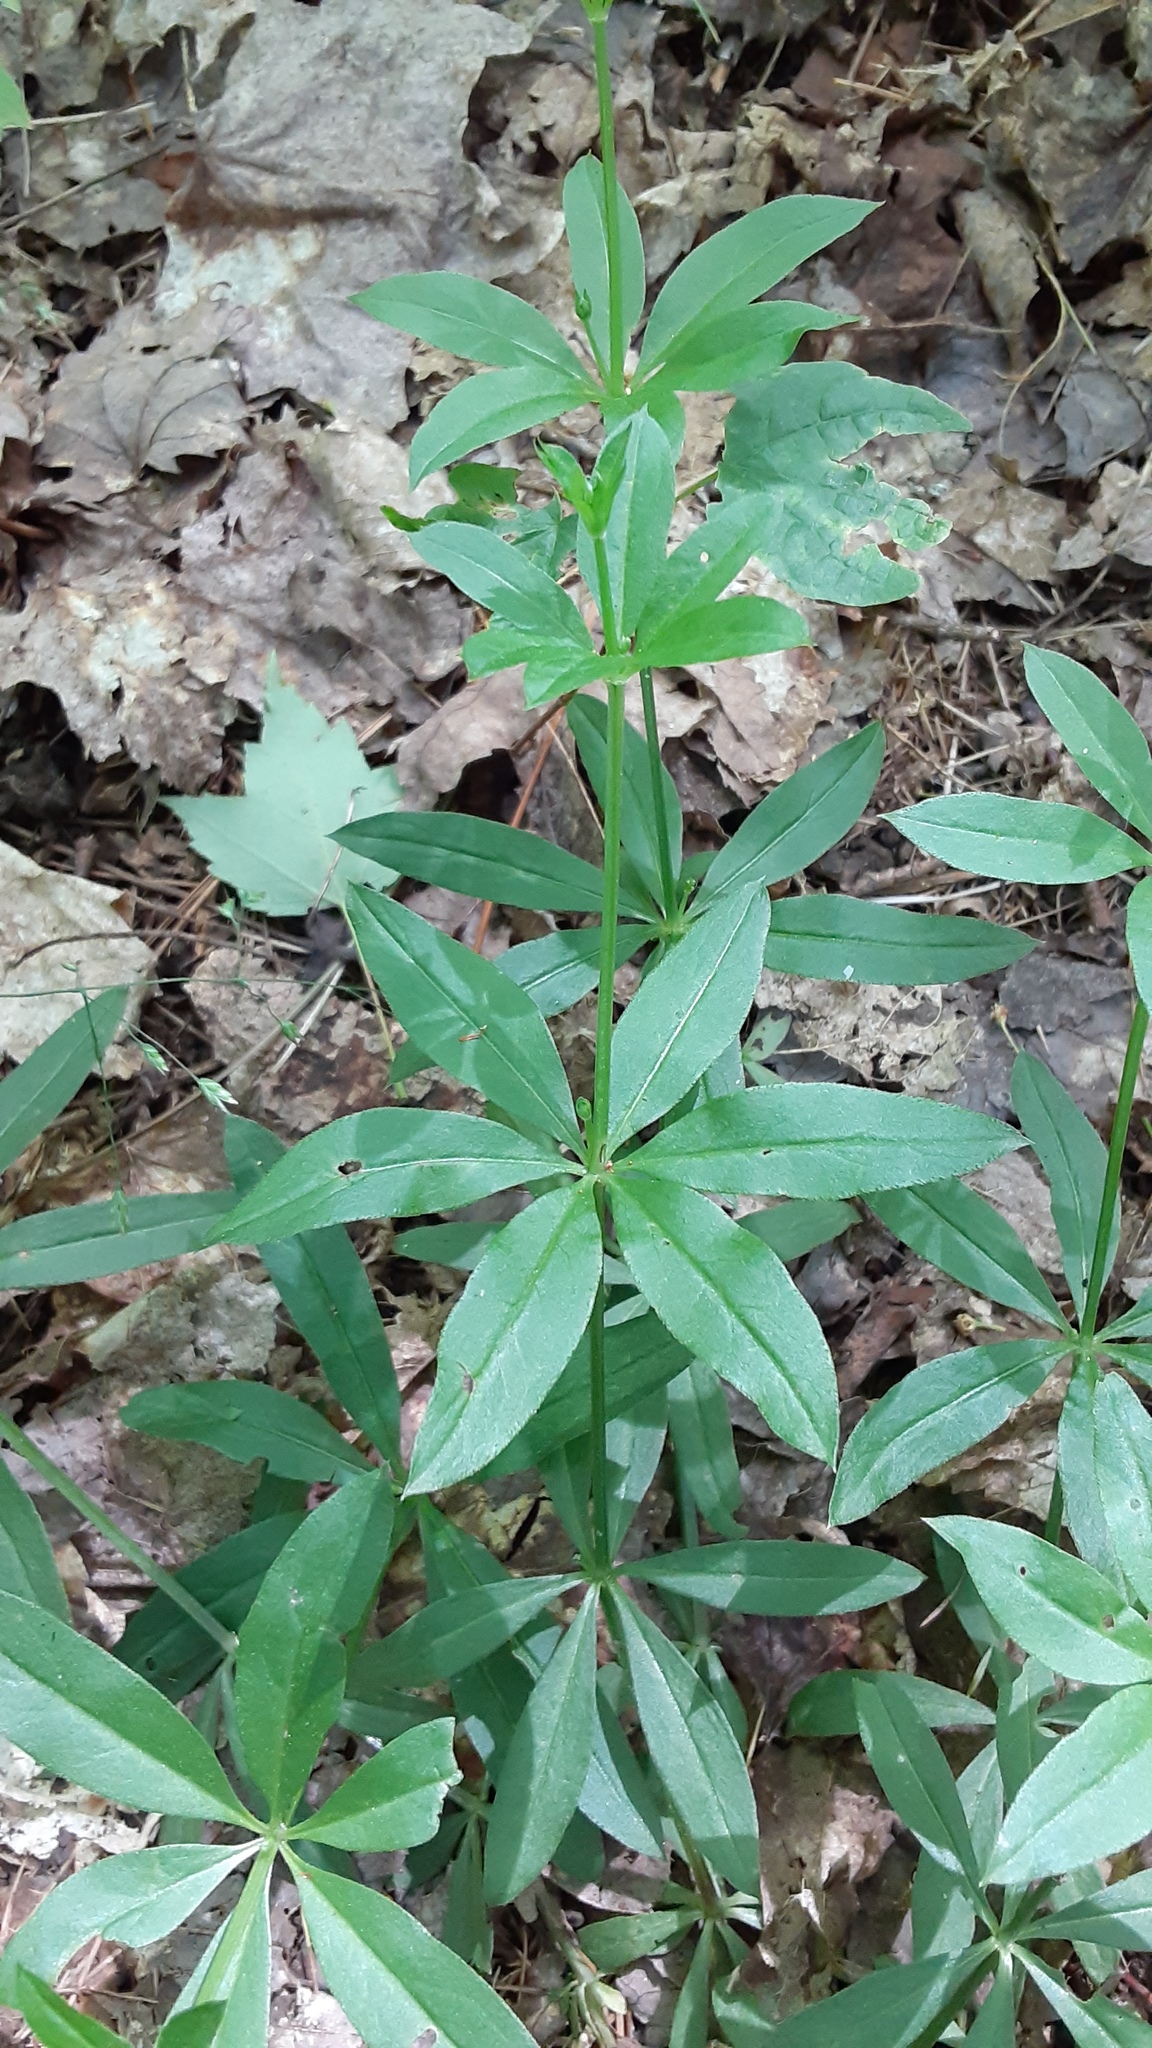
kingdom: Plantae
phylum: Tracheophyta
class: Magnoliopsida
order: Gentianales
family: Rubiaceae
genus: Galium
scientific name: Galium triflorum
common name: Fragrant bedstraw
